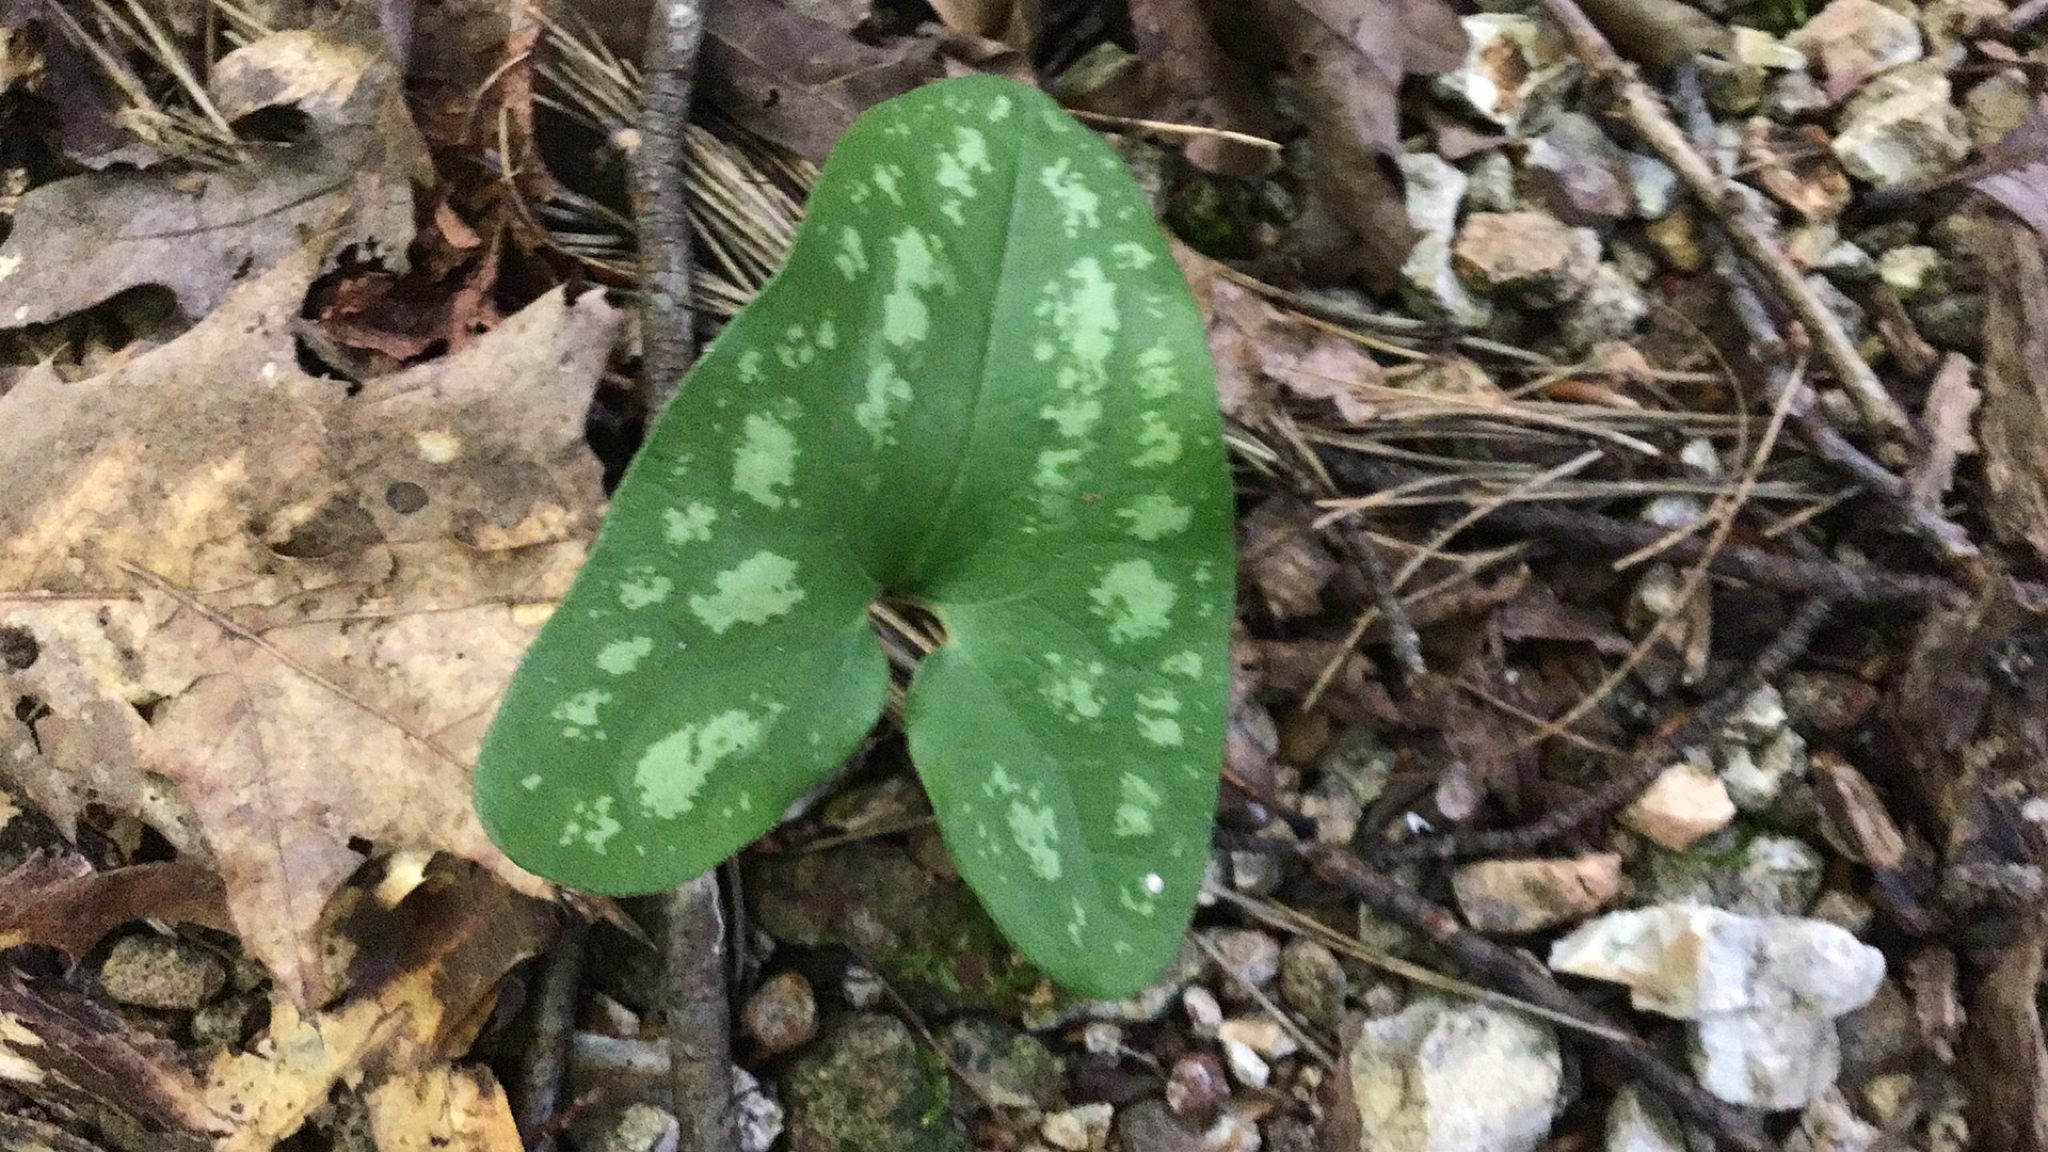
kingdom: Plantae
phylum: Tracheophyta
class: Magnoliopsida
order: Piperales
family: Aristolochiaceae
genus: Hexastylis
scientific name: Hexastylis arifolia
